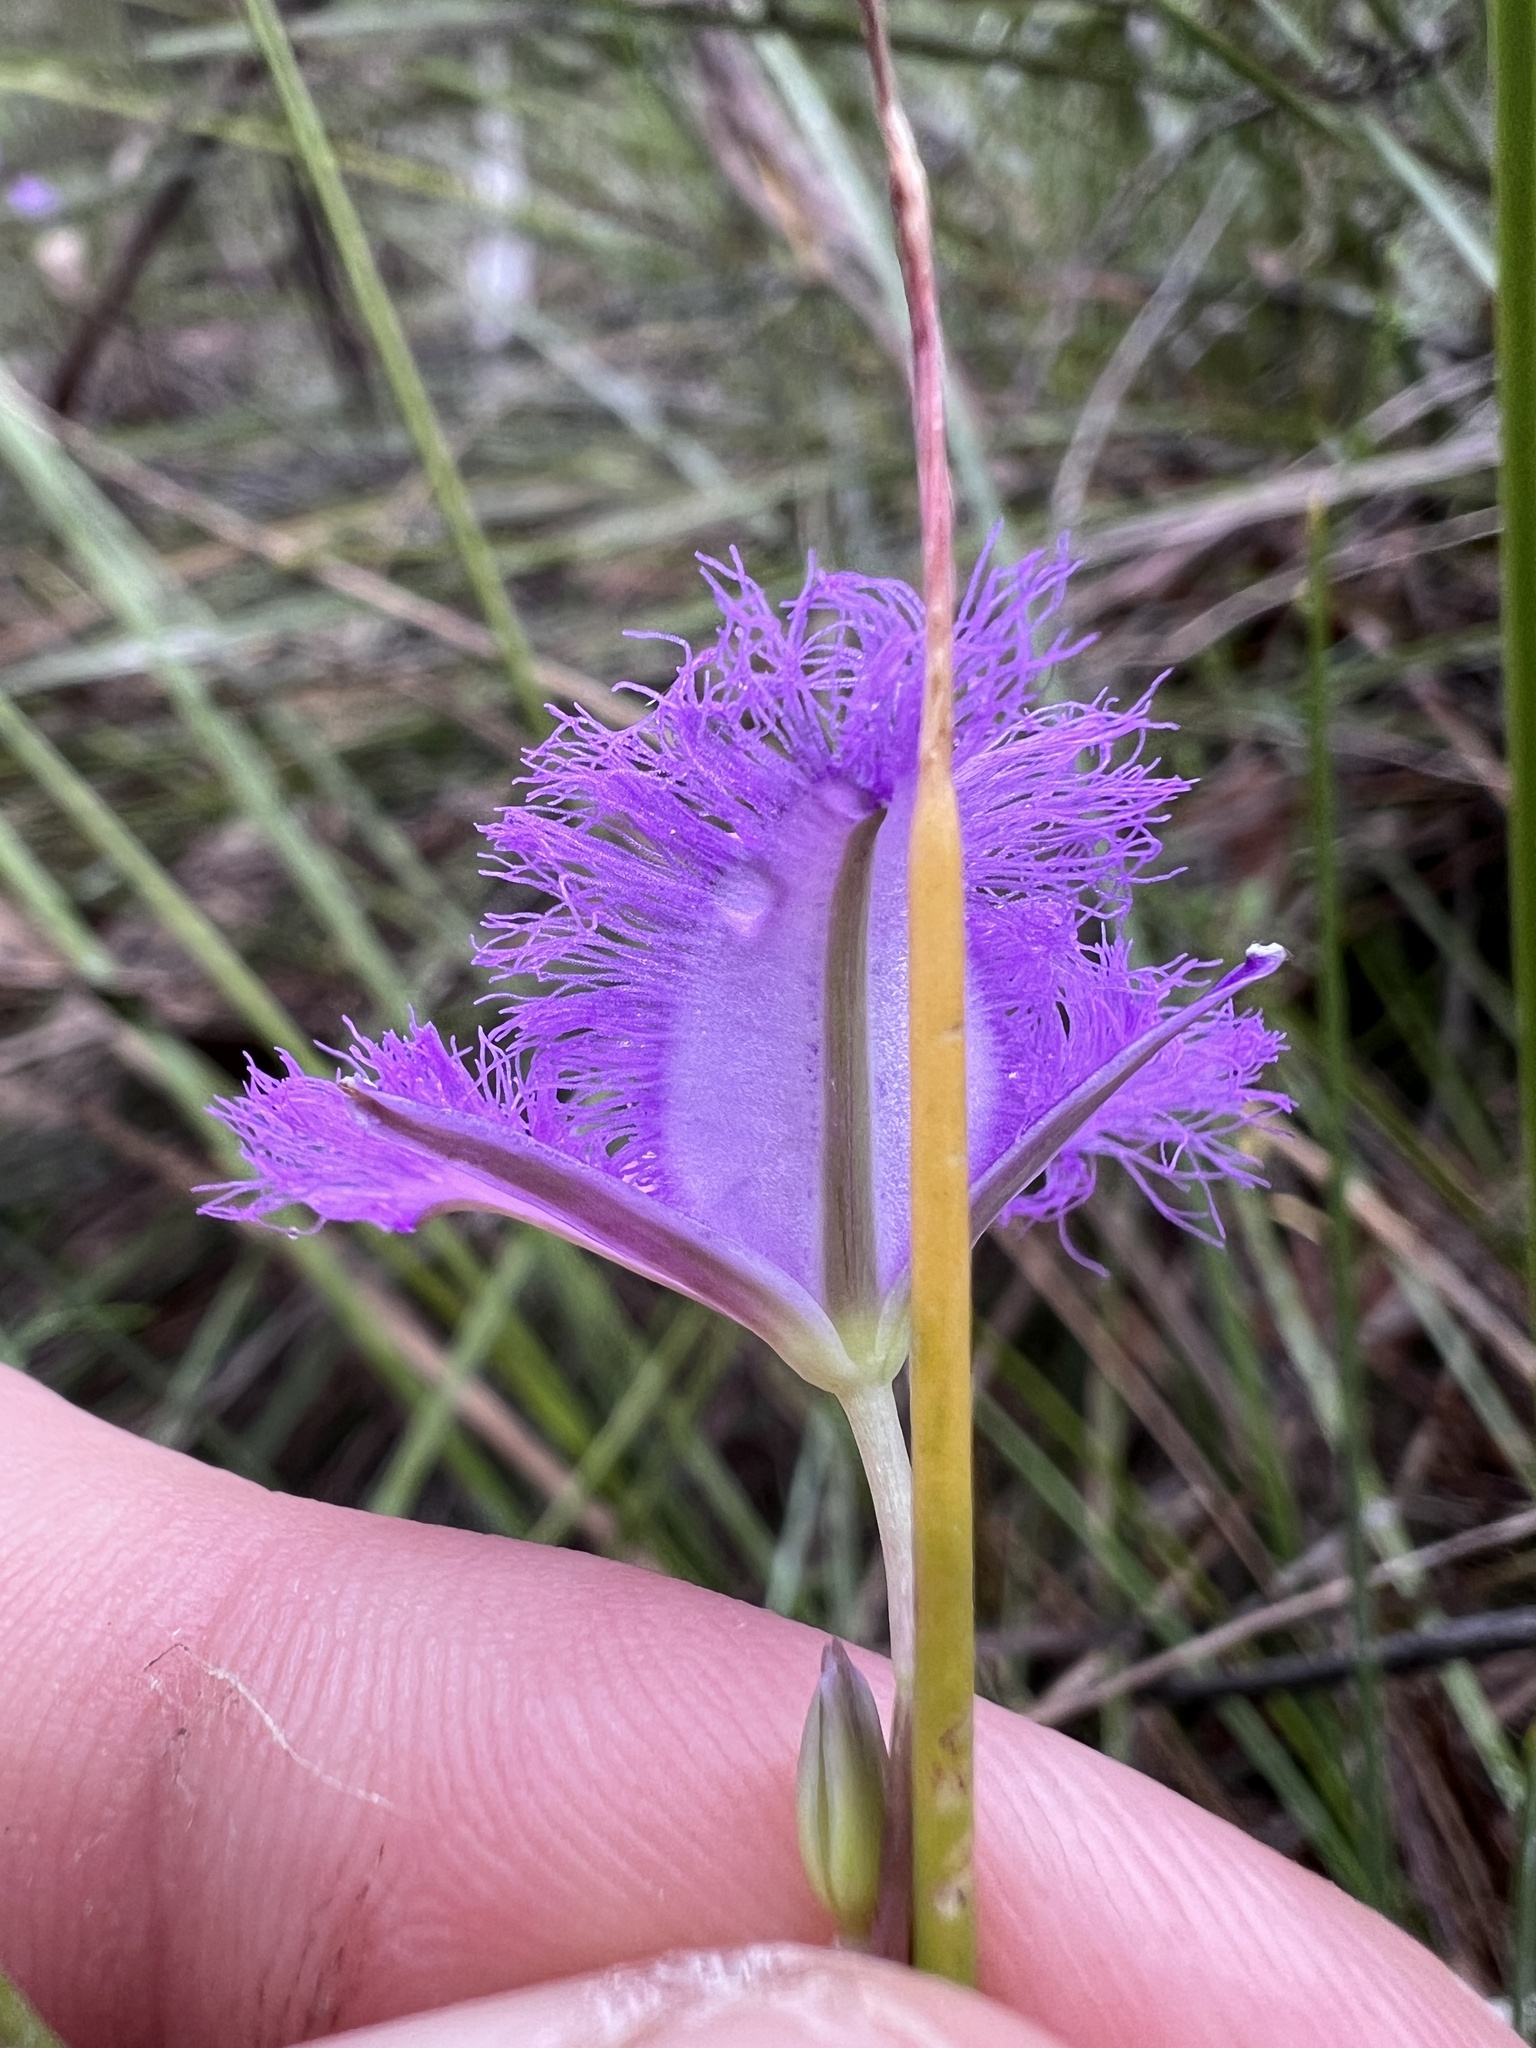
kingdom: Plantae
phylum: Tracheophyta
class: Liliopsida
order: Asparagales
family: Asparagaceae
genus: Thysanotus
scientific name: Thysanotus tuberosus
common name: Common fringed-lily
